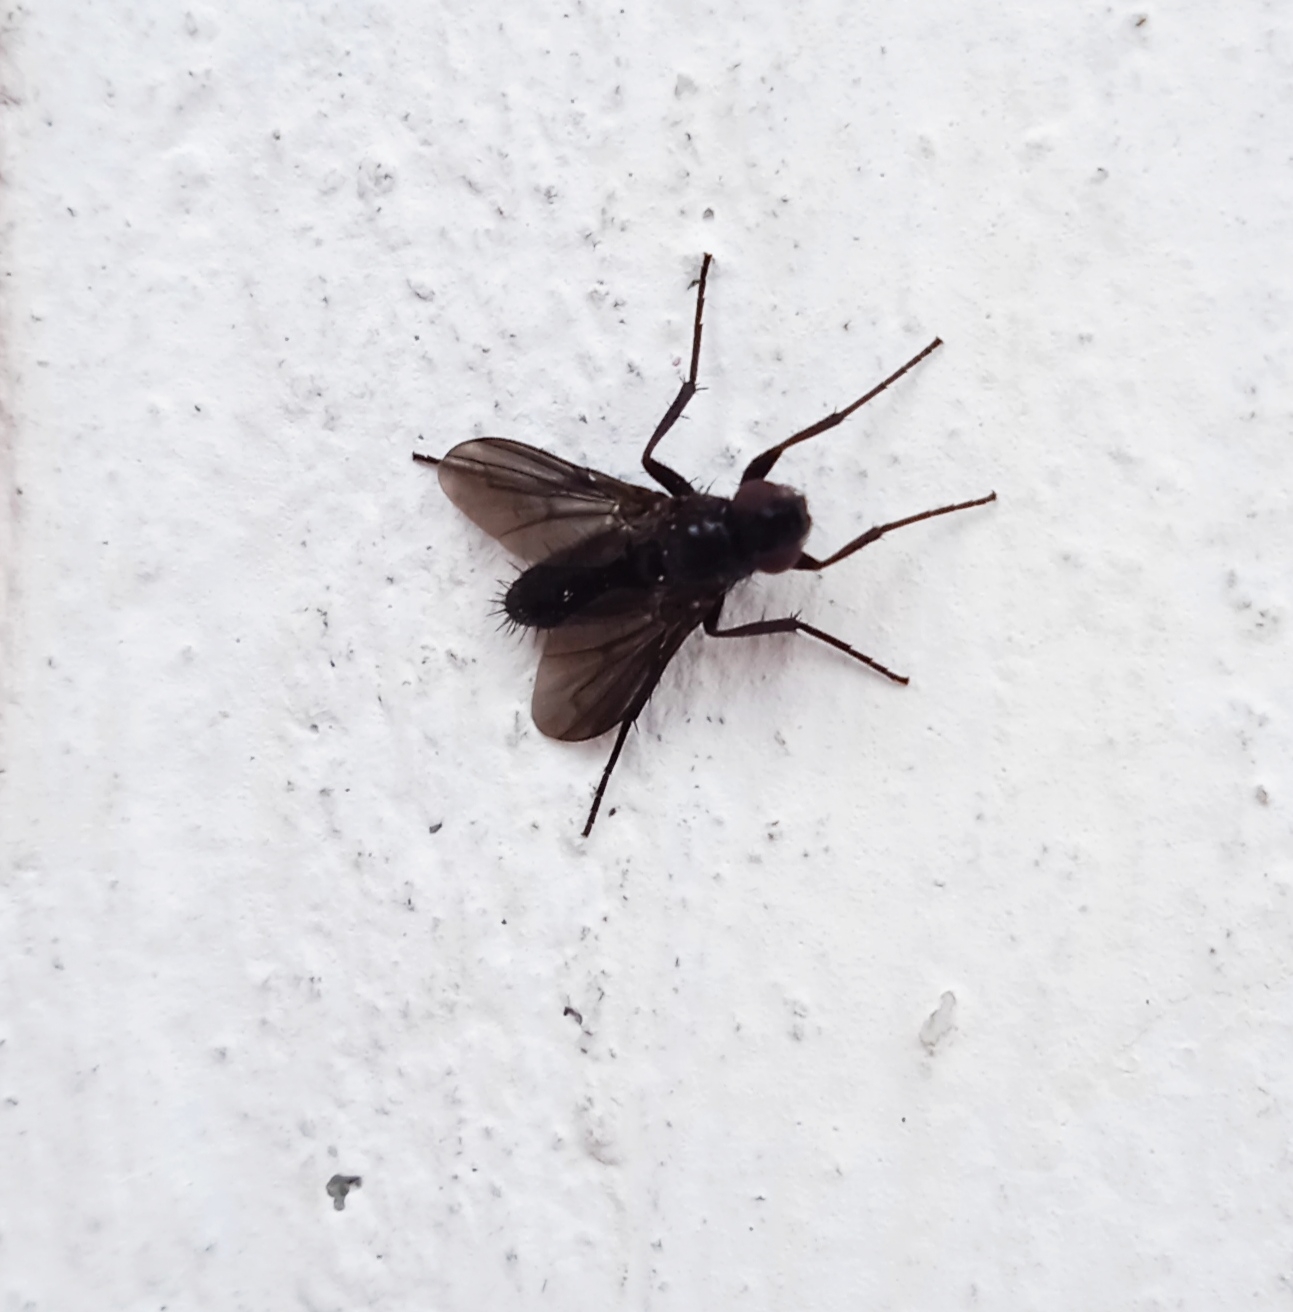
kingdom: Animalia
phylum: Arthropoda
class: Insecta
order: Diptera
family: Calliphoridae
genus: Melanophora
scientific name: Melanophora roralis
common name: Smoky-winged woodlouse-fly
